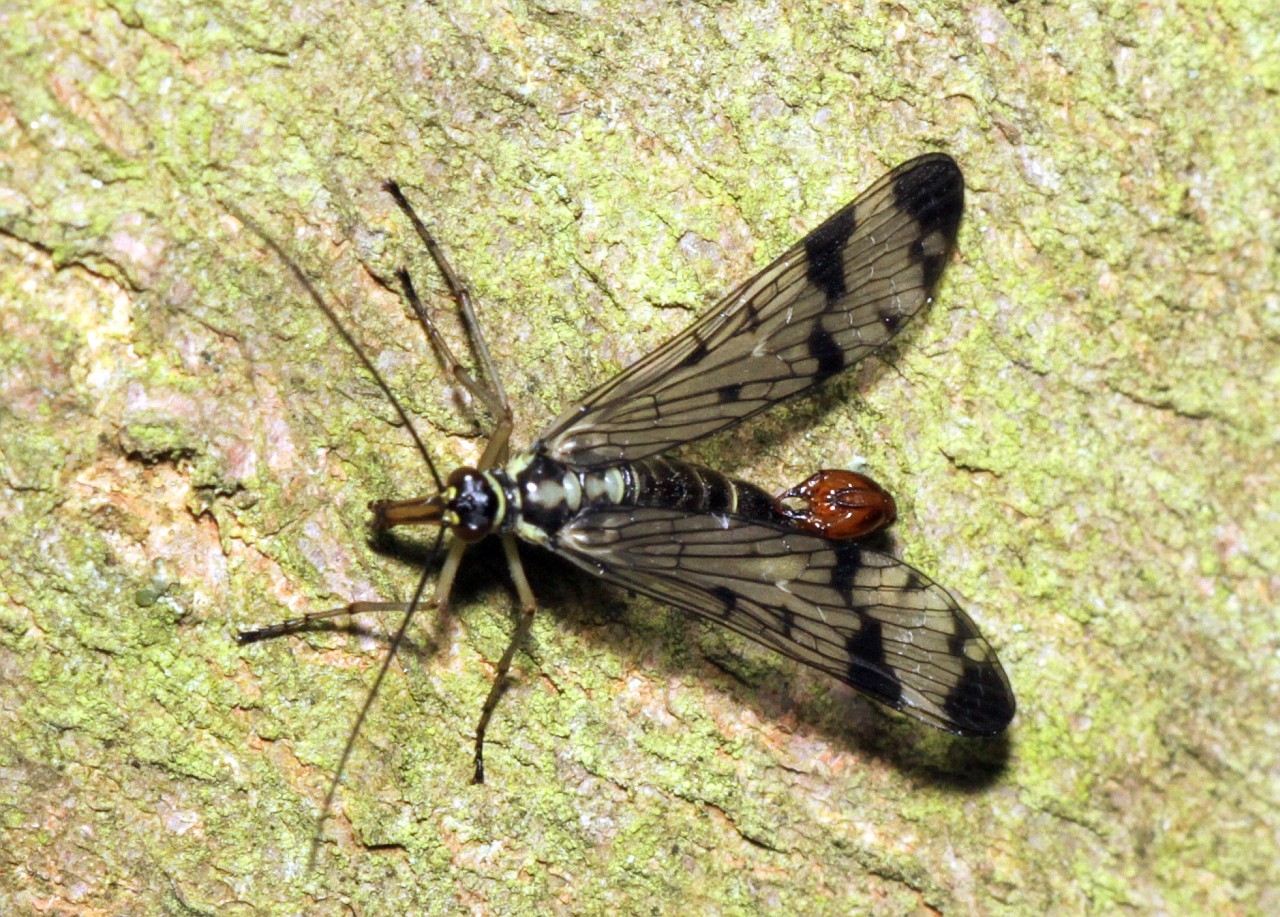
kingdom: Animalia
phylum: Arthropoda
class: Insecta
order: Mecoptera
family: Panorpidae
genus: Panorpa
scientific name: Panorpa communis
